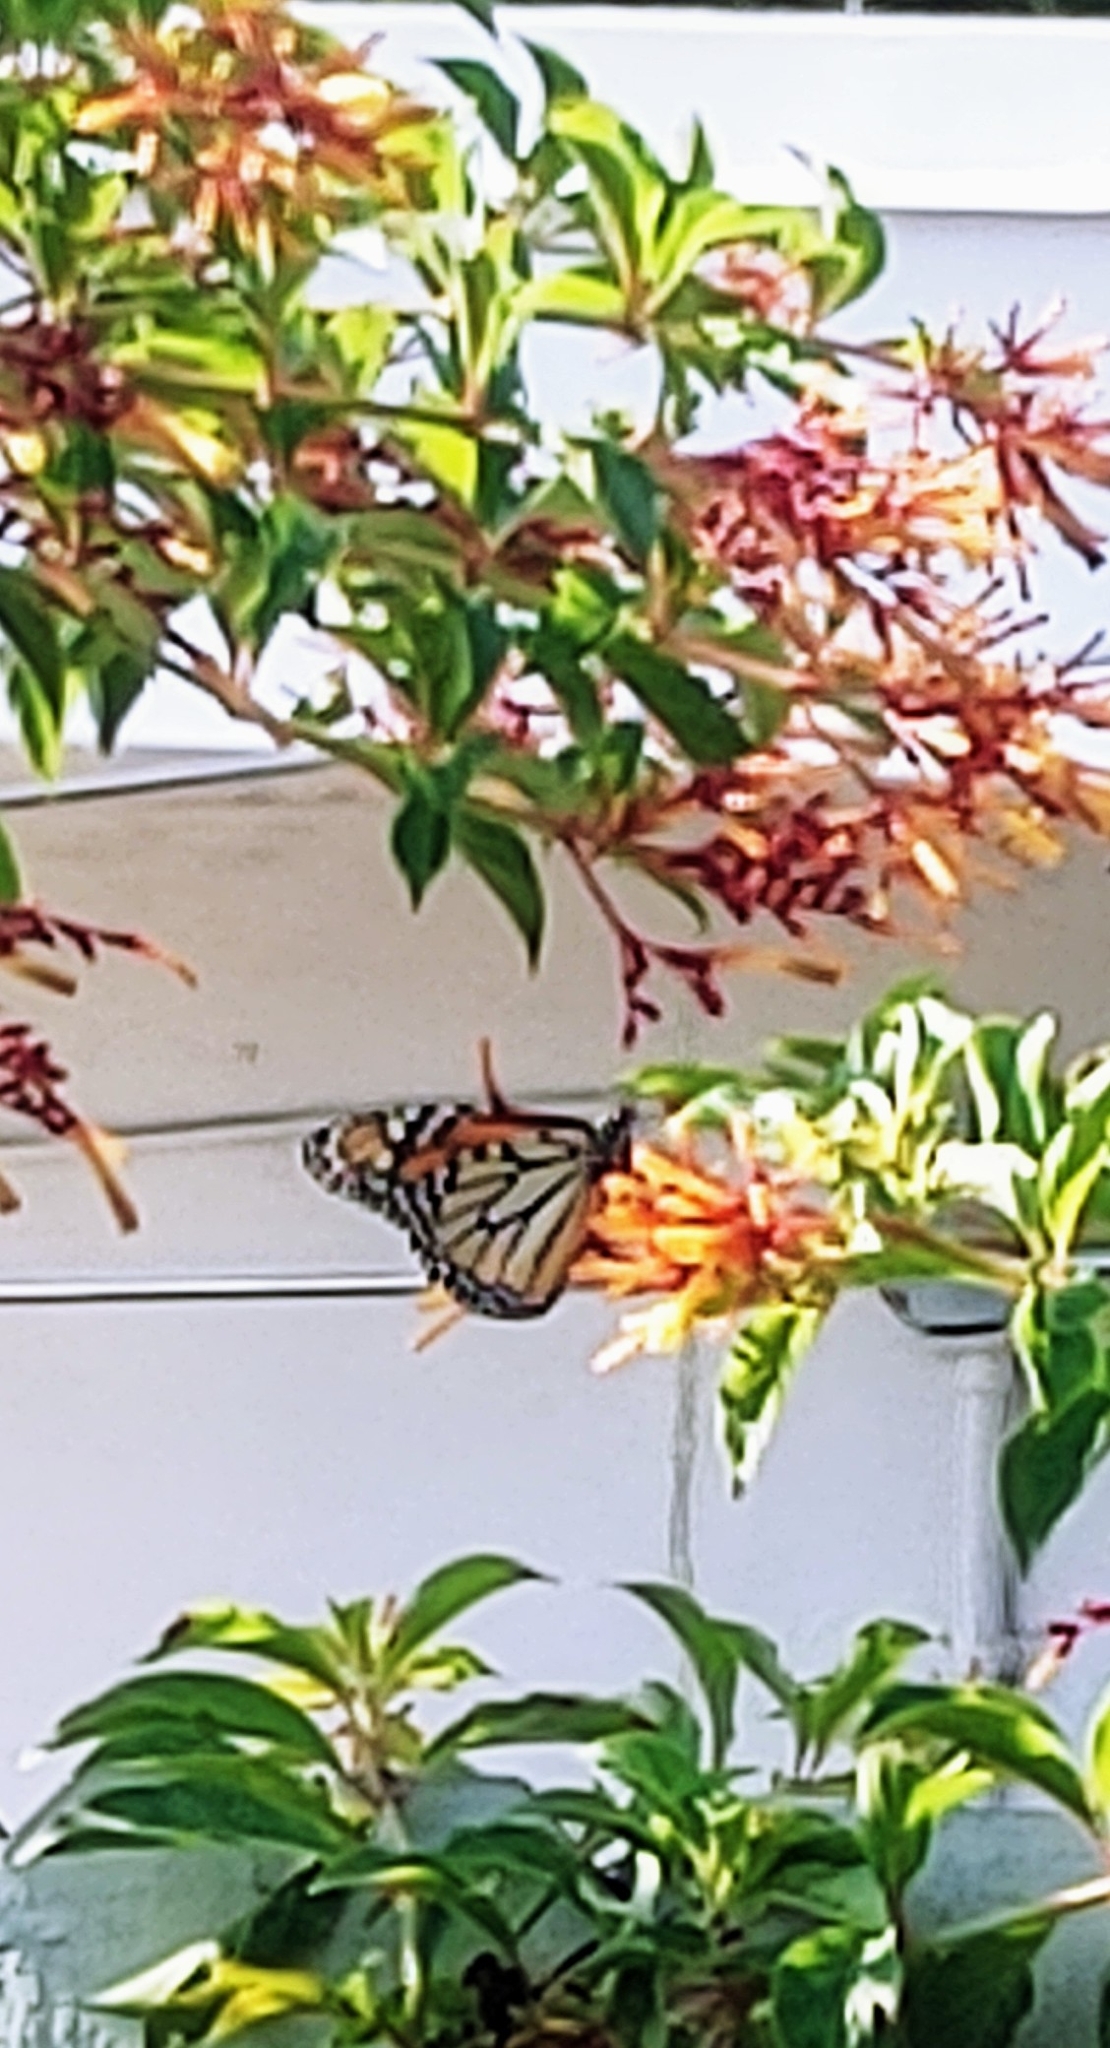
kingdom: Animalia
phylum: Arthropoda
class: Insecta
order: Lepidoptera
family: Nymphalidae
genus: Danaus
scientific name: Danaus plexippus
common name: Monarch
